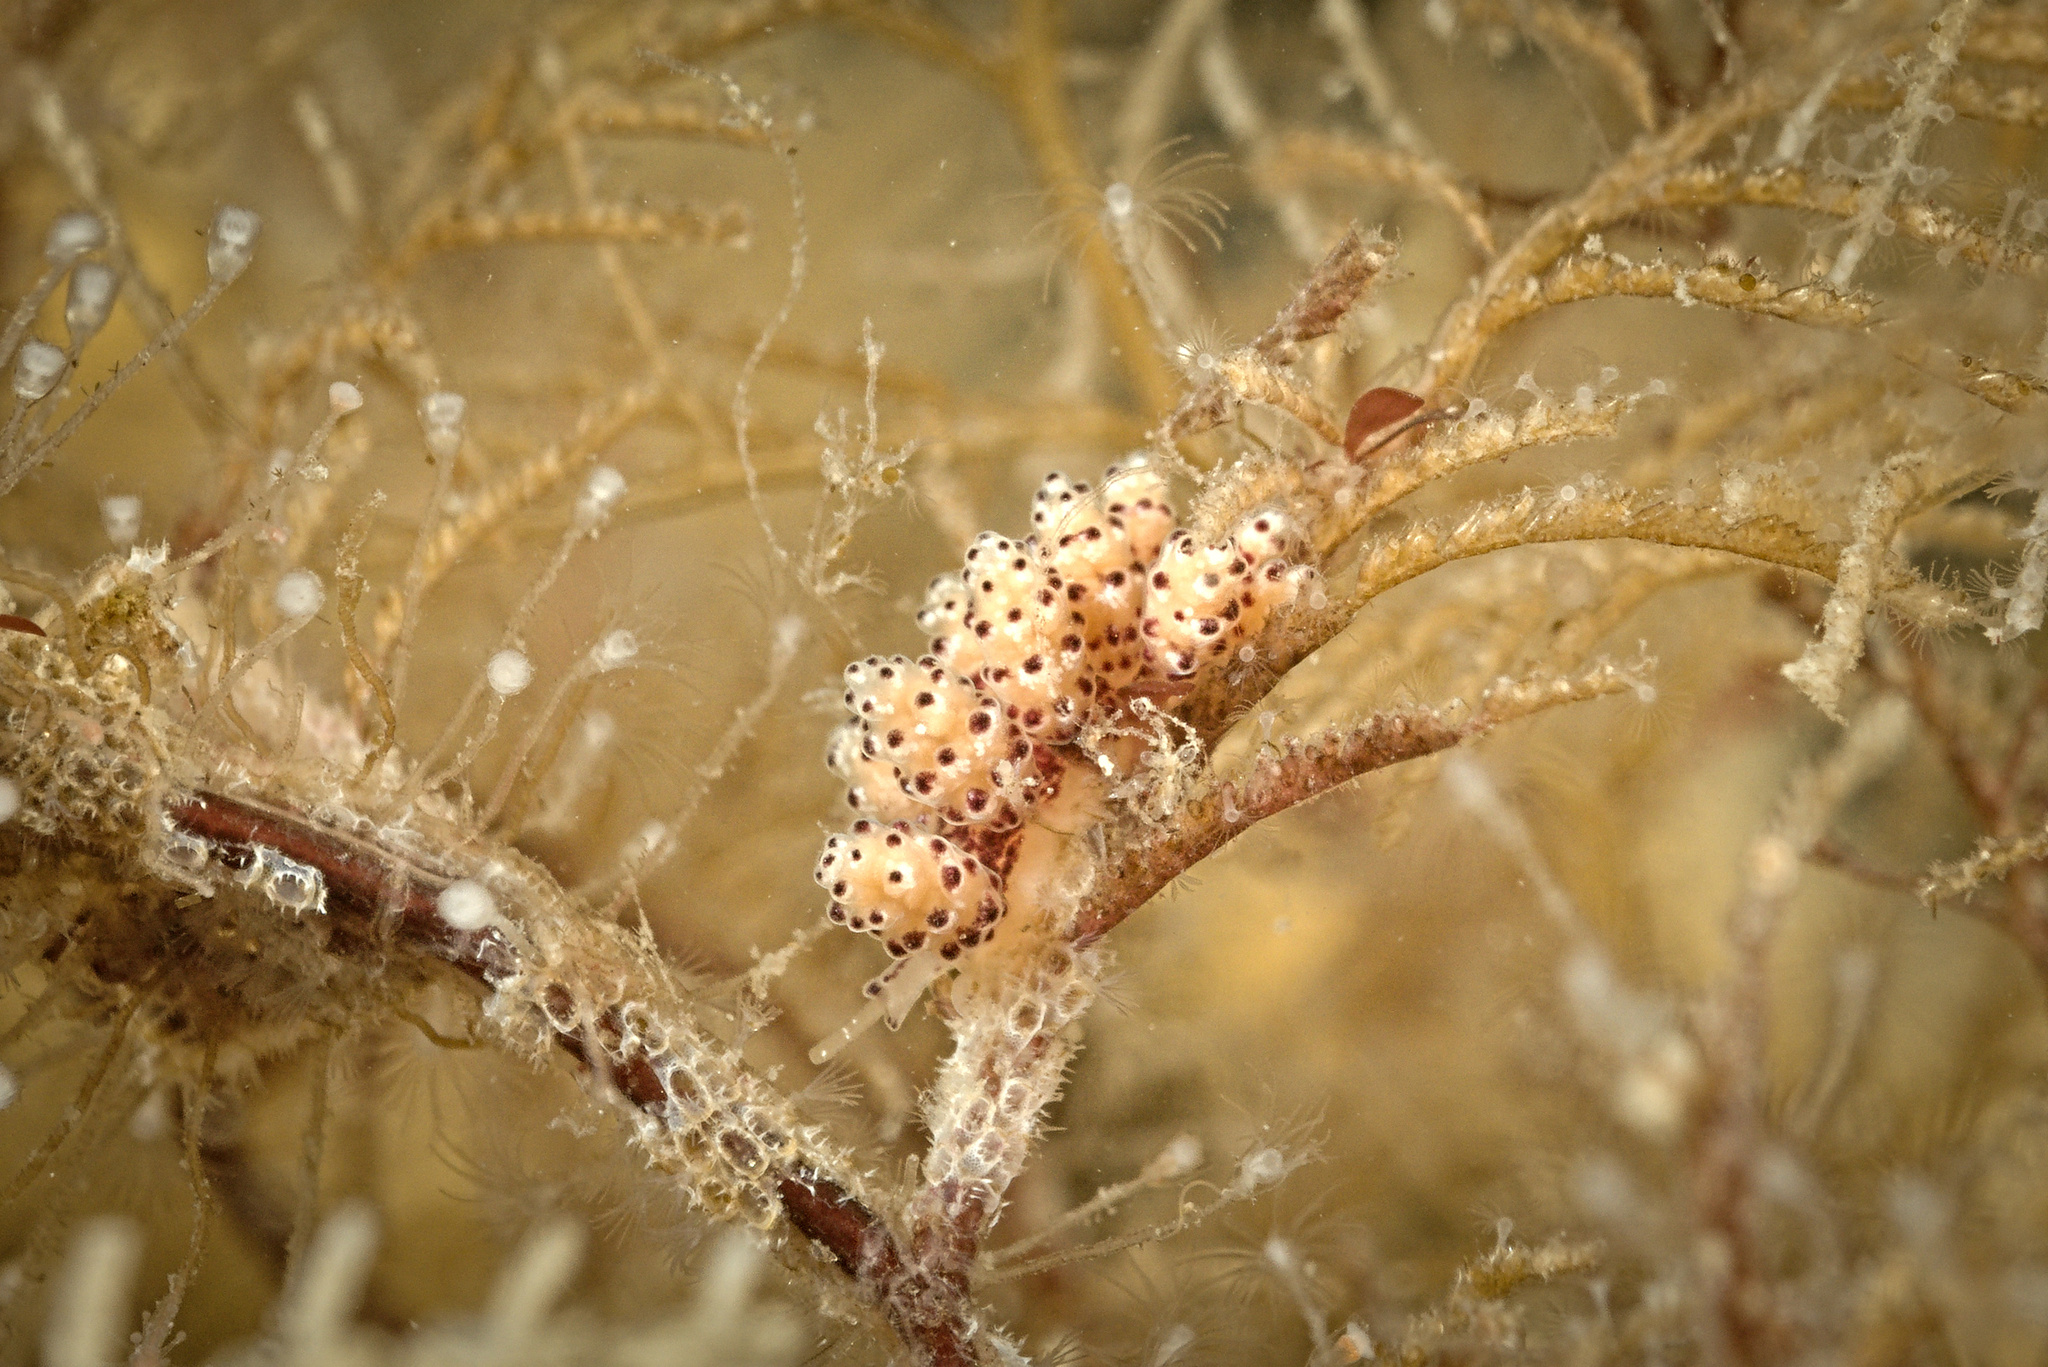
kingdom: Animalia
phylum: Mollusca
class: Gastropoda
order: Nudibranchia
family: Dotidae
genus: Doto
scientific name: Doto hydrallmaniae
